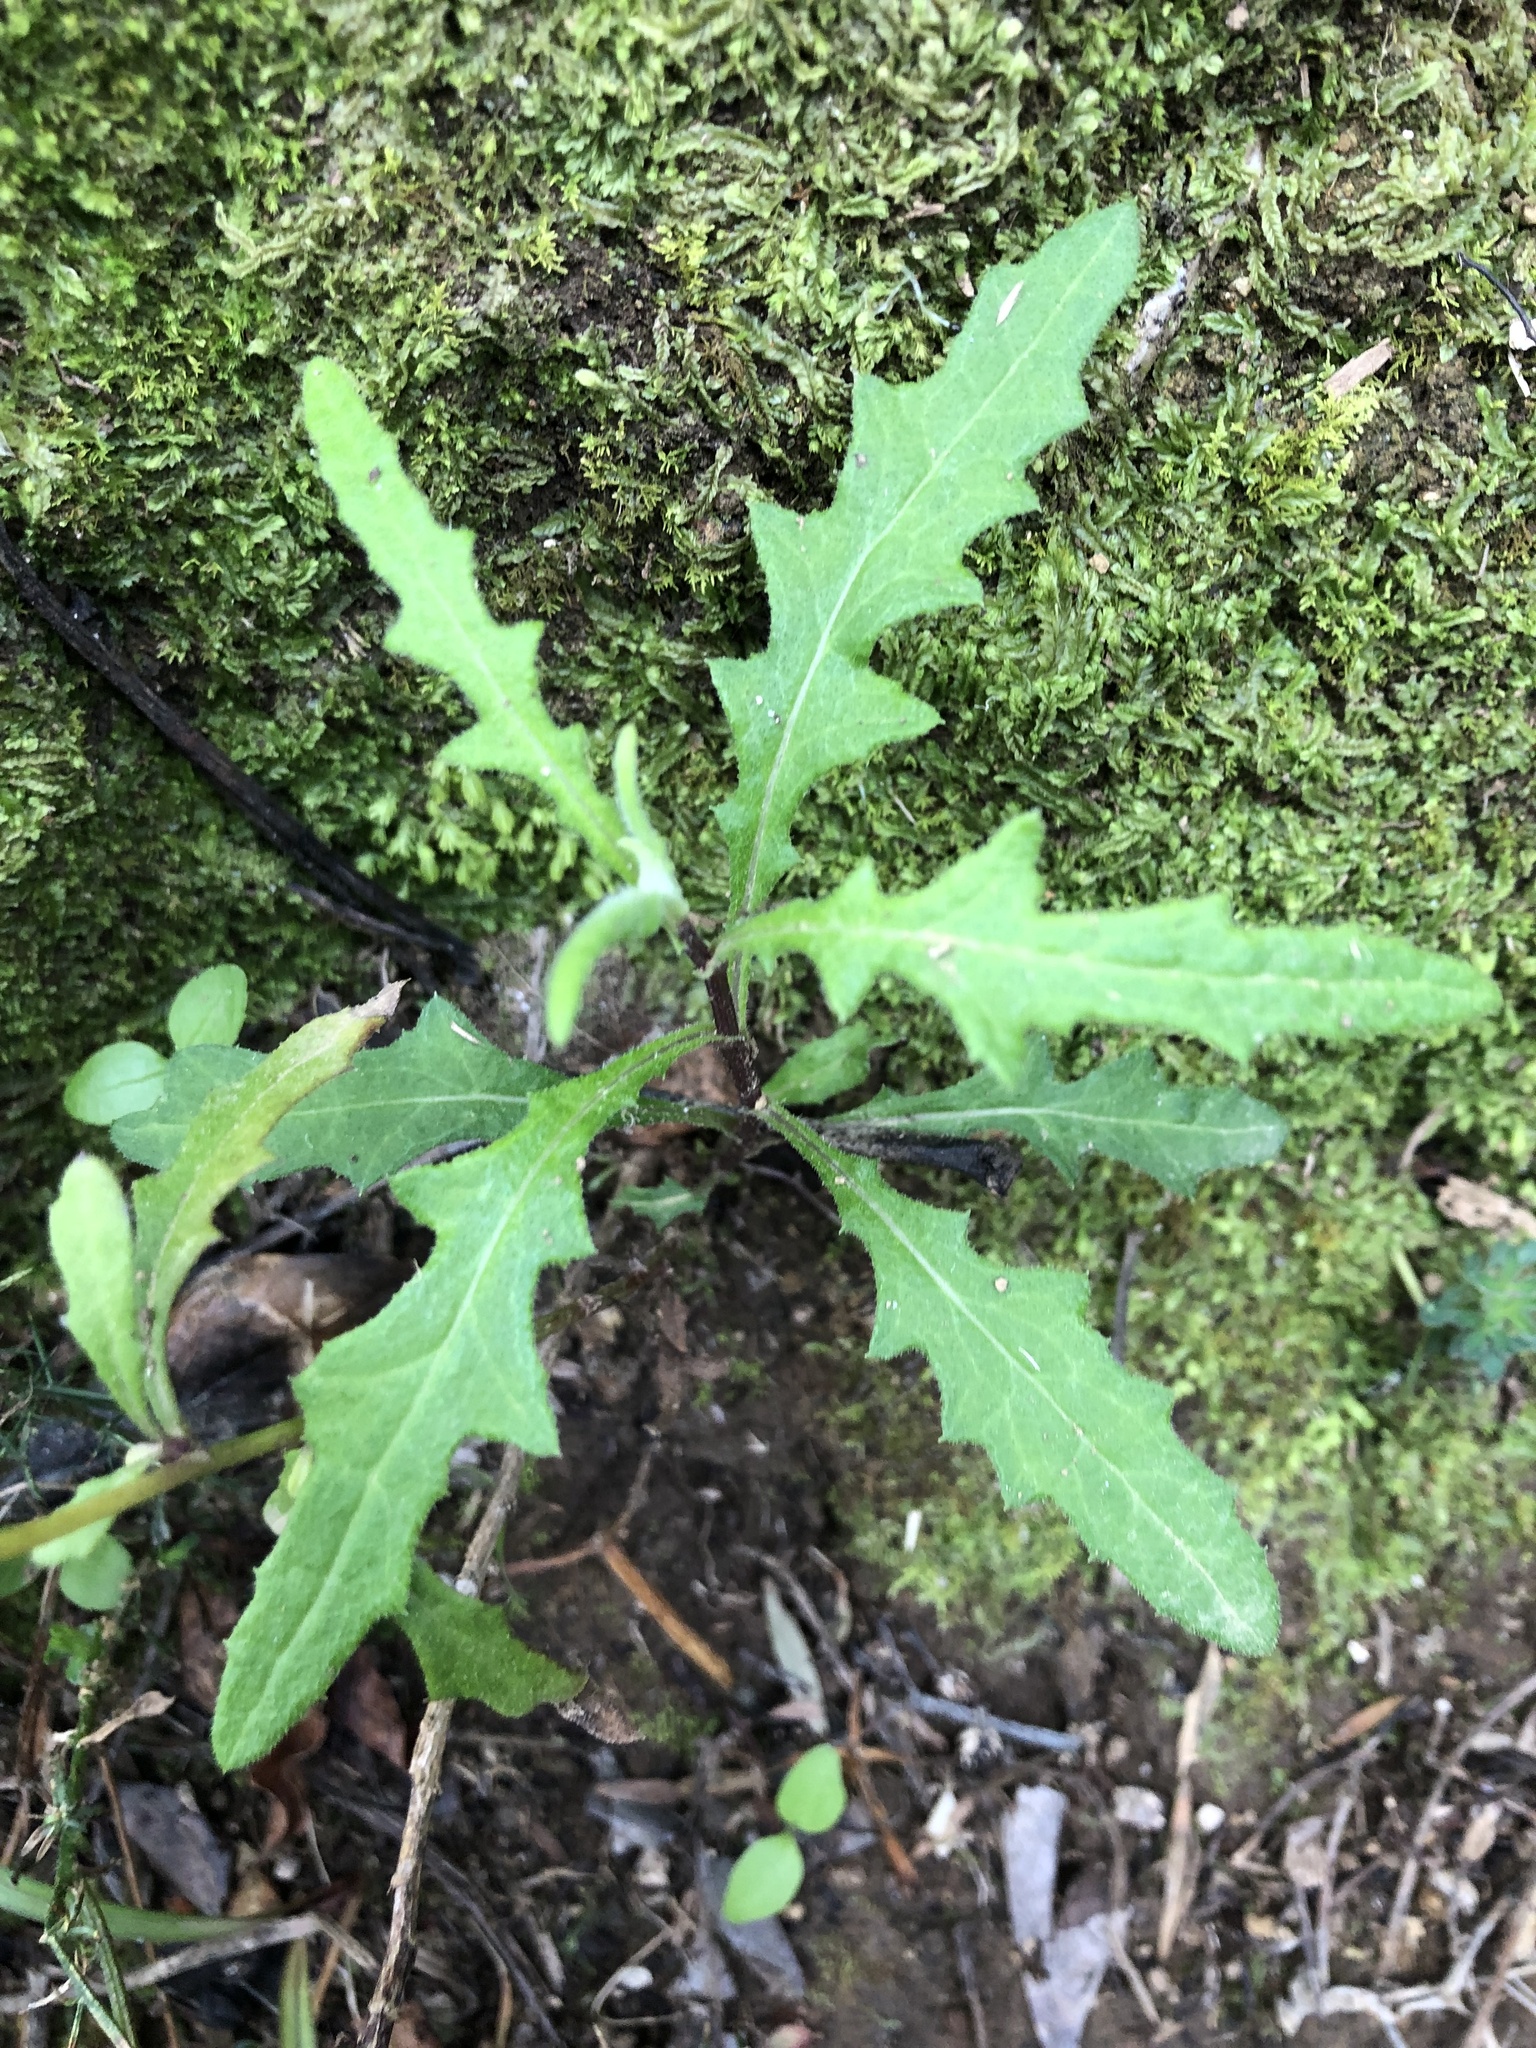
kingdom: Plantae
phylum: Tracheophyta
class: Magnoliopsida
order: Asterales
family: Asteraceae
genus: Senecio
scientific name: Senecio hispidulus
